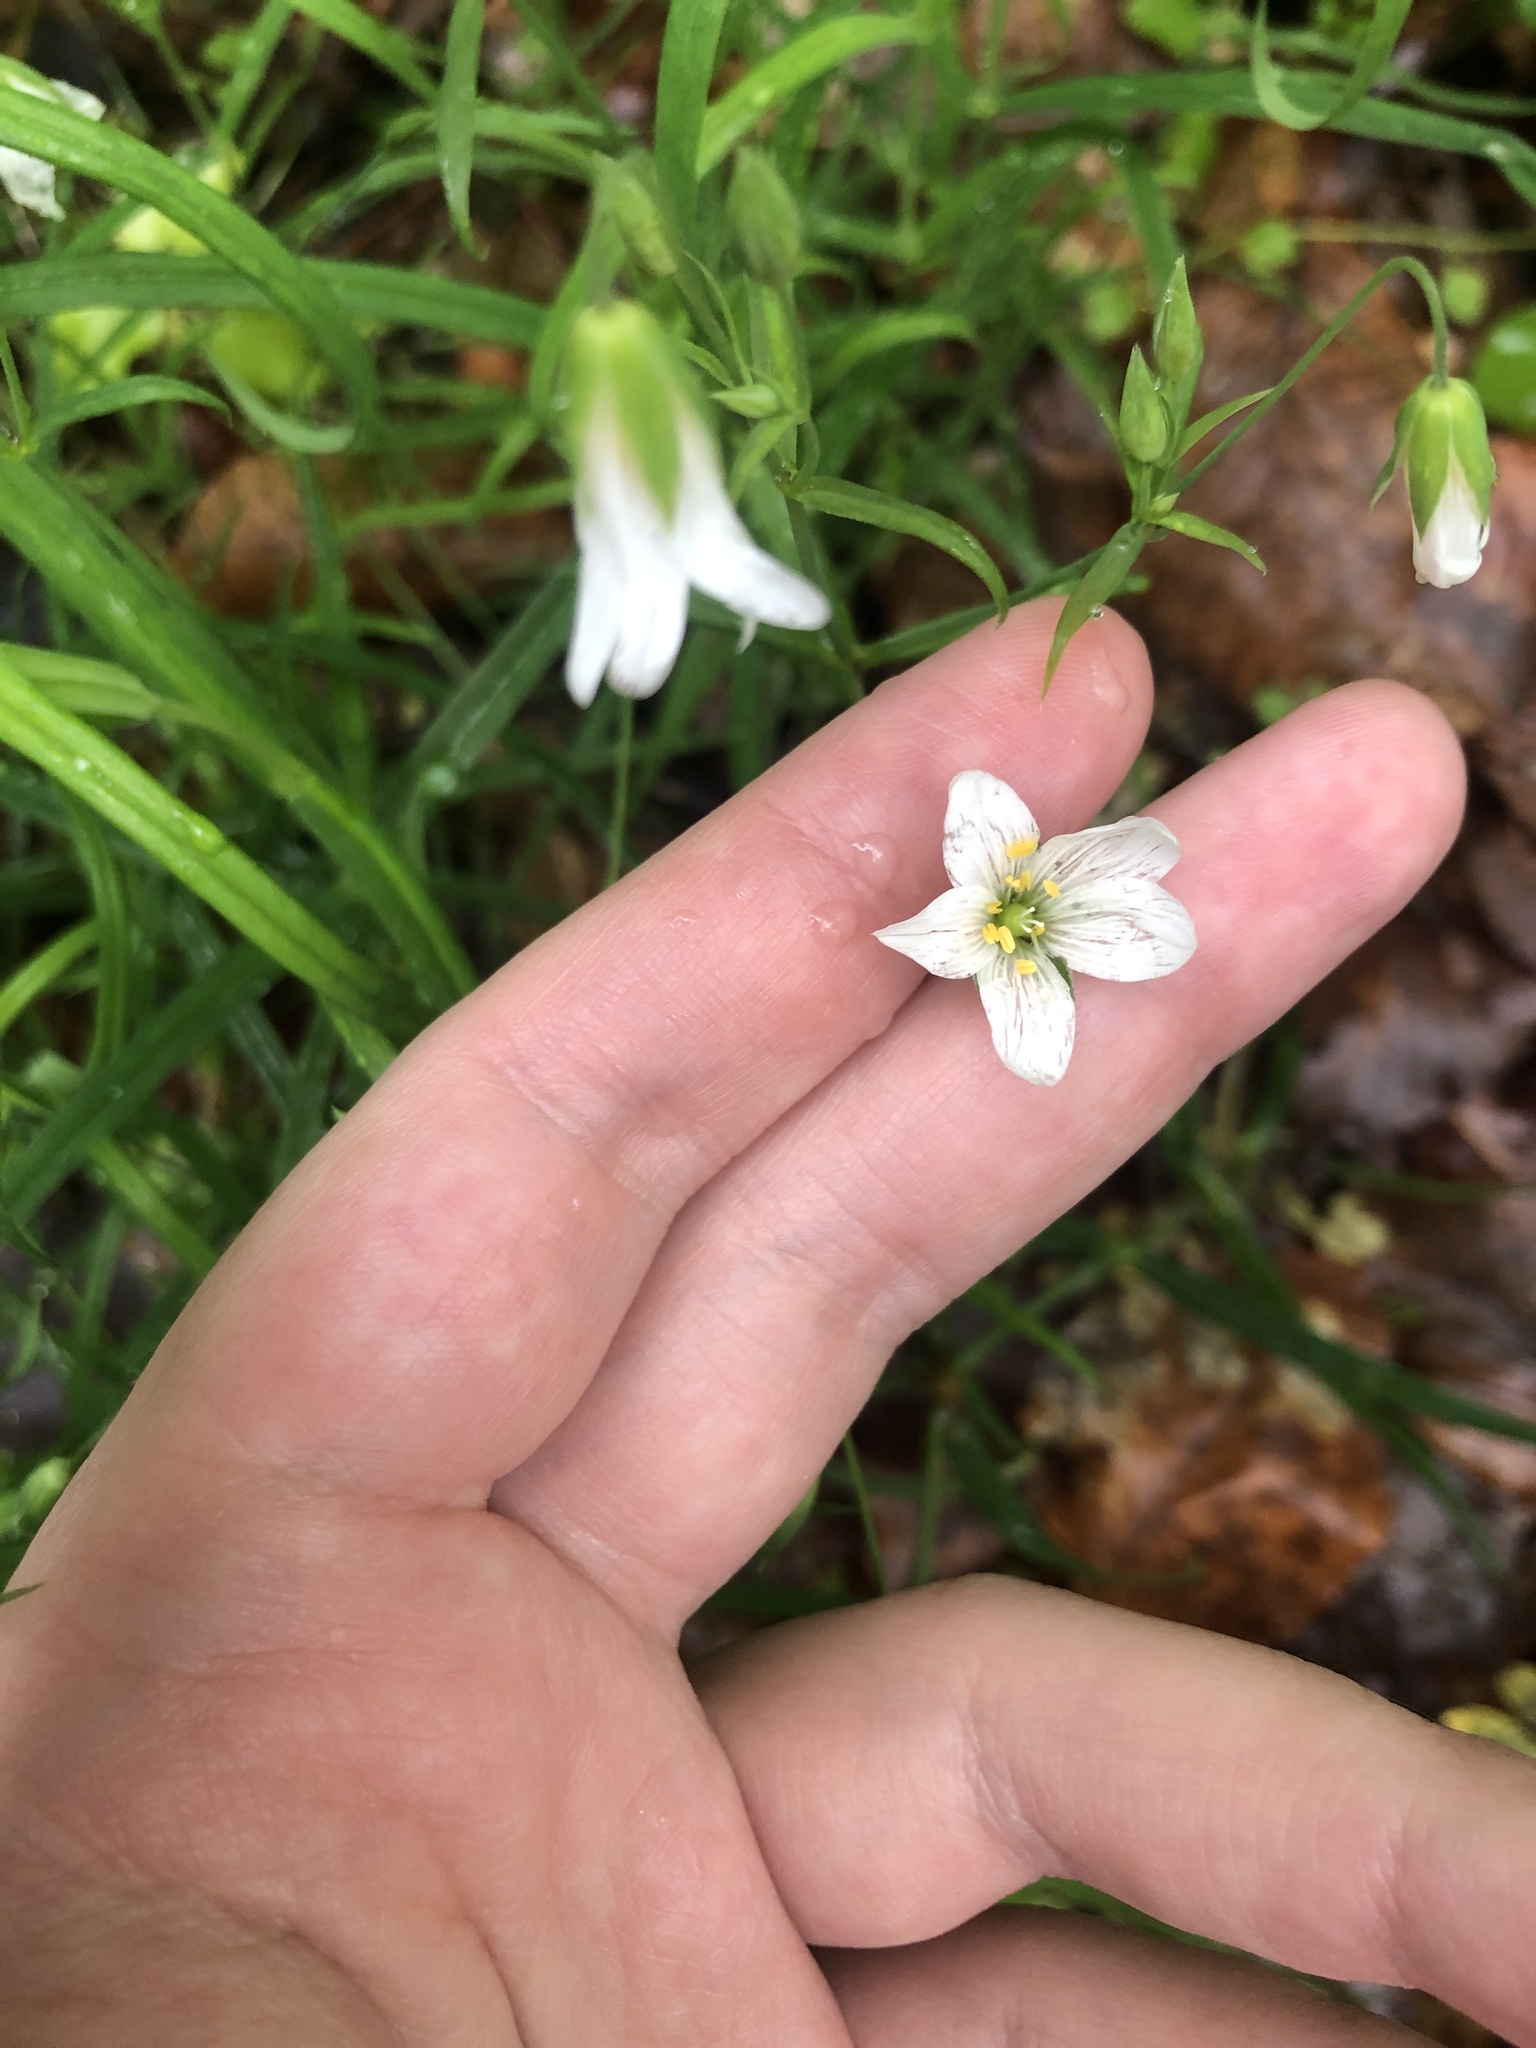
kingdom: Plantae
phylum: Tracheophyta
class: Magnoliopsida
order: Caryophyllales
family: Caryophyllaceae
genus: Rabelera
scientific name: Rabelera holostea
